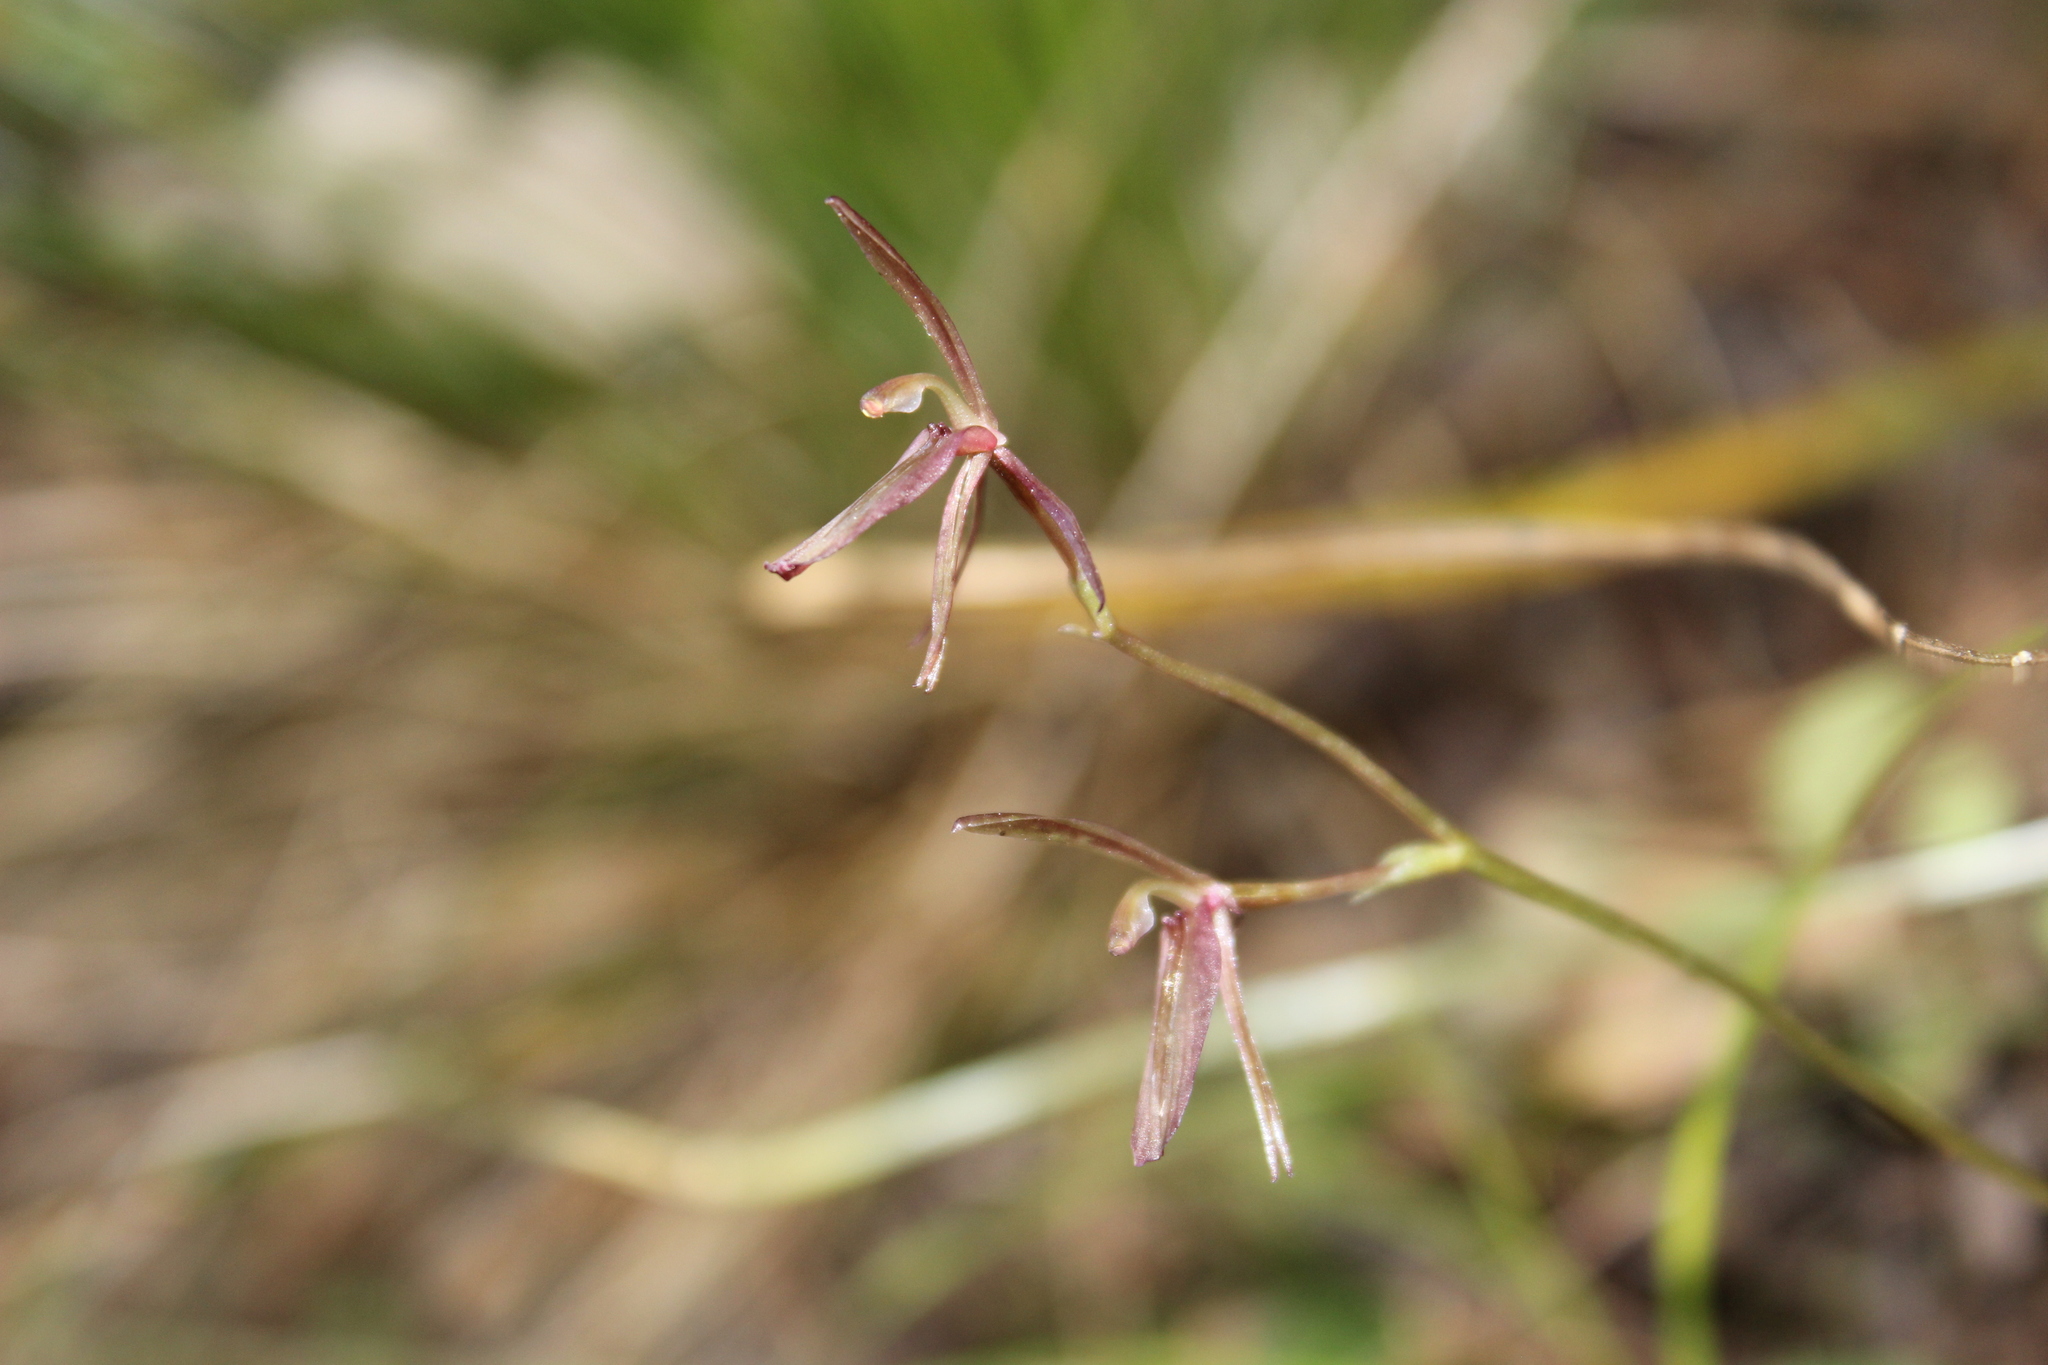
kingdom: Plantae
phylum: Tracheophyta
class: Liliopsida
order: Asparagales
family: Orchidaceae
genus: Cyrtostylis
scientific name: Cyrtostylis rotundifolia
